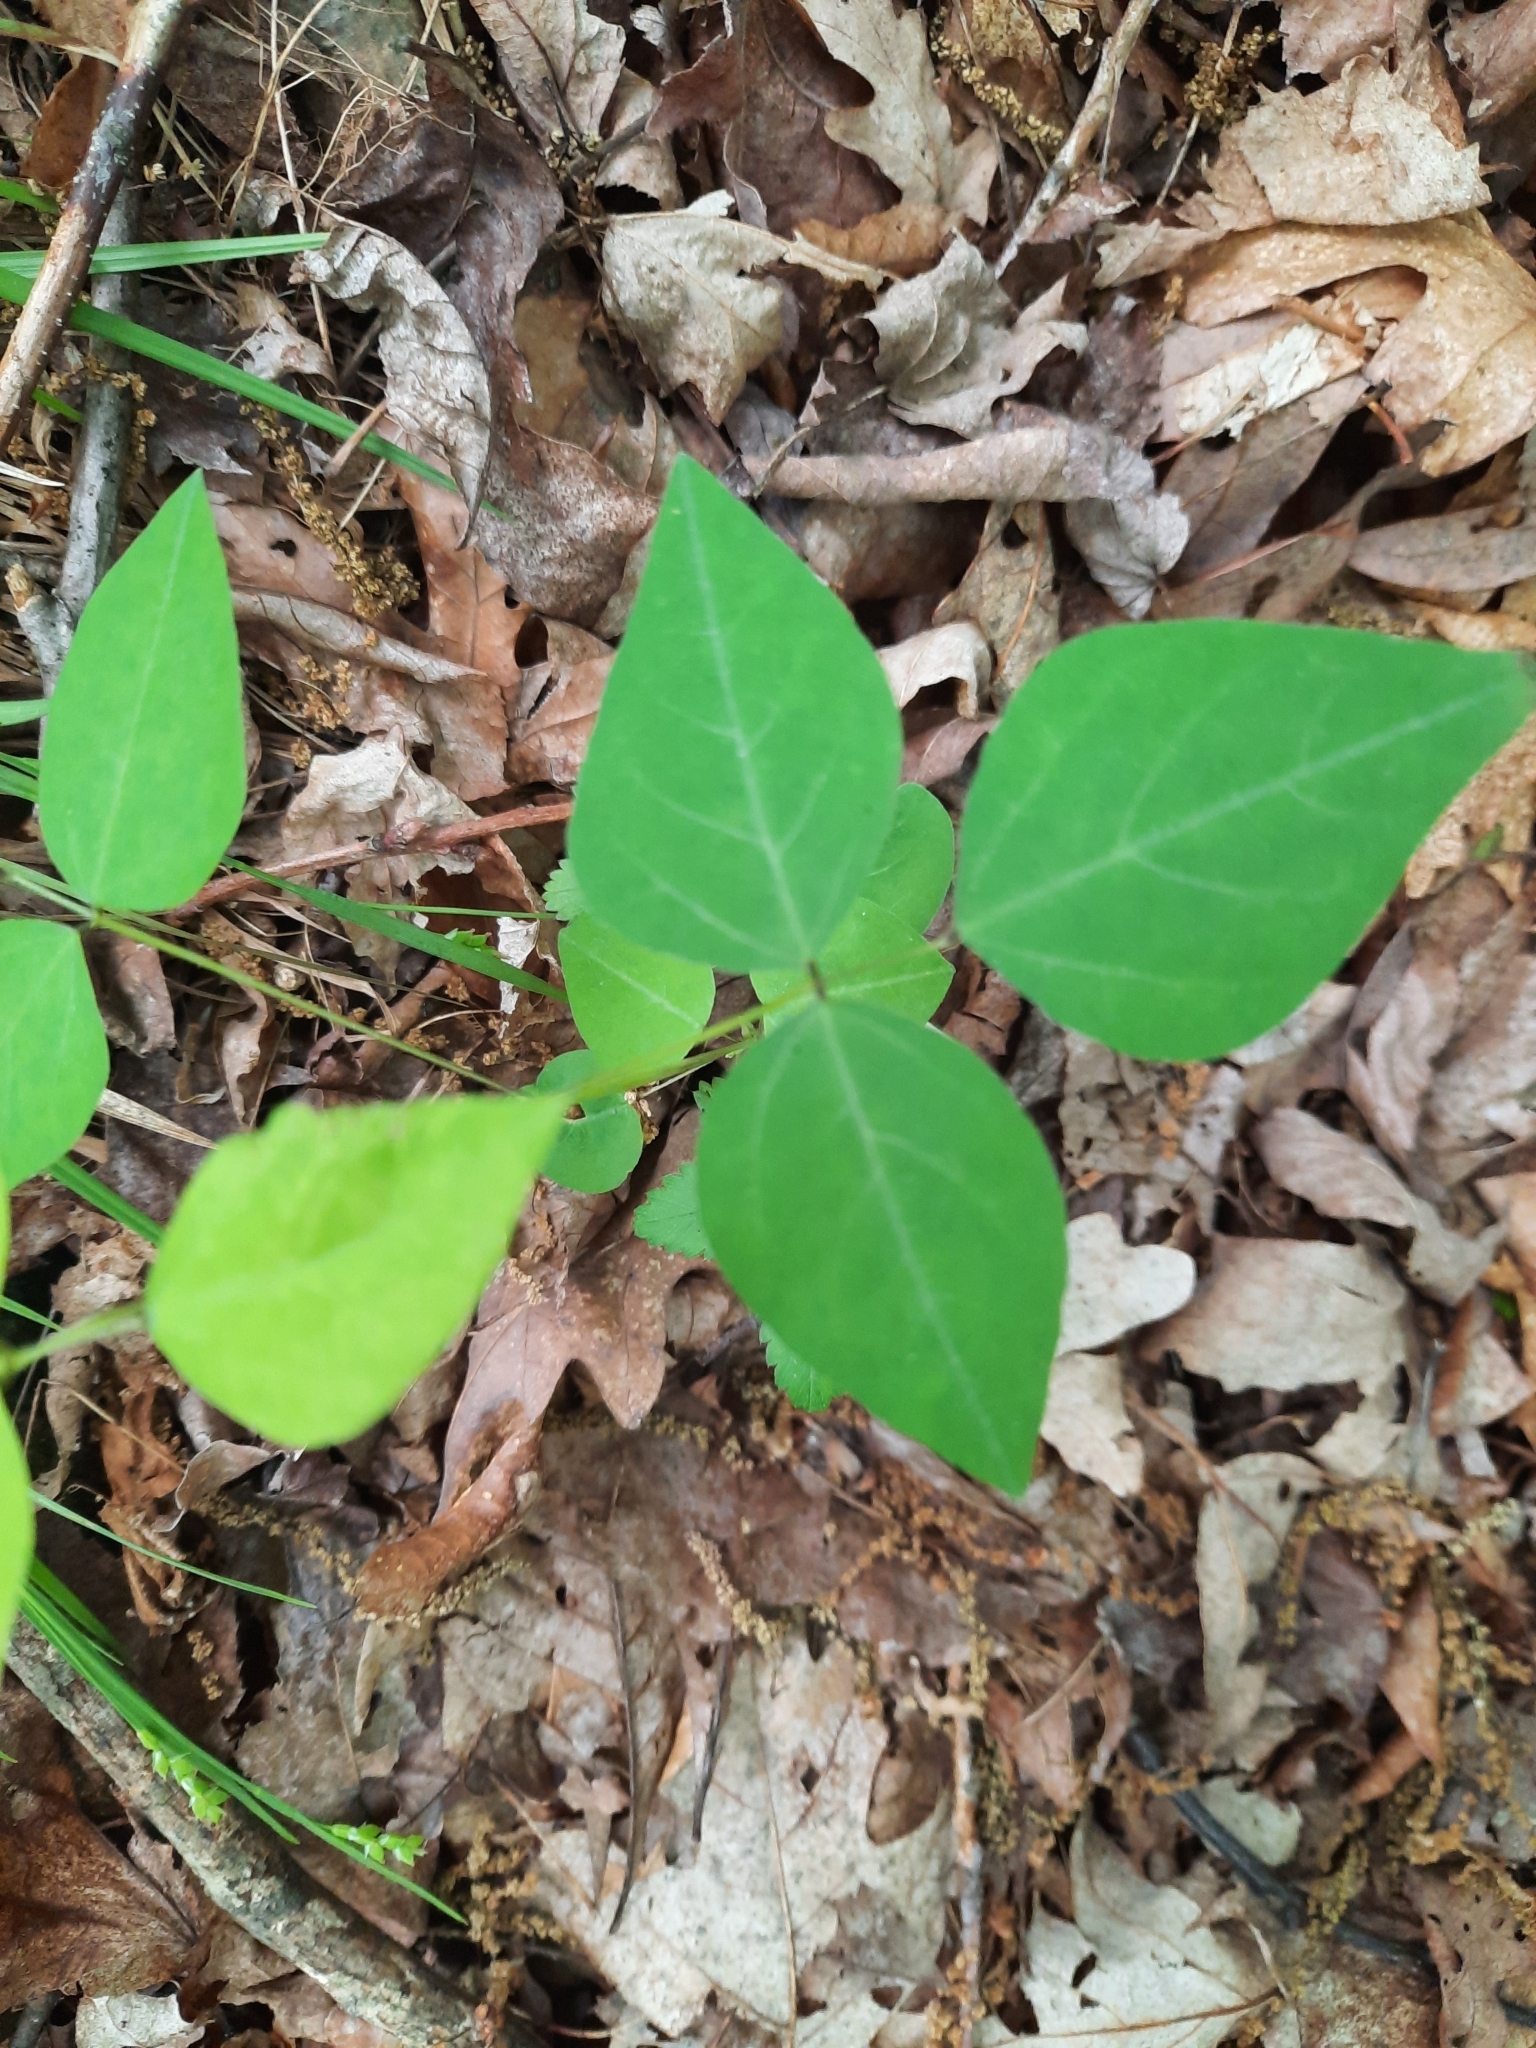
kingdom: Plantae
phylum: Tracheophyta
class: Magnoliopsida
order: Fabales
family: Fabaceae
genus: Amphicarpaea
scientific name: Amphicarpaea bracteata
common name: American hog peanut
